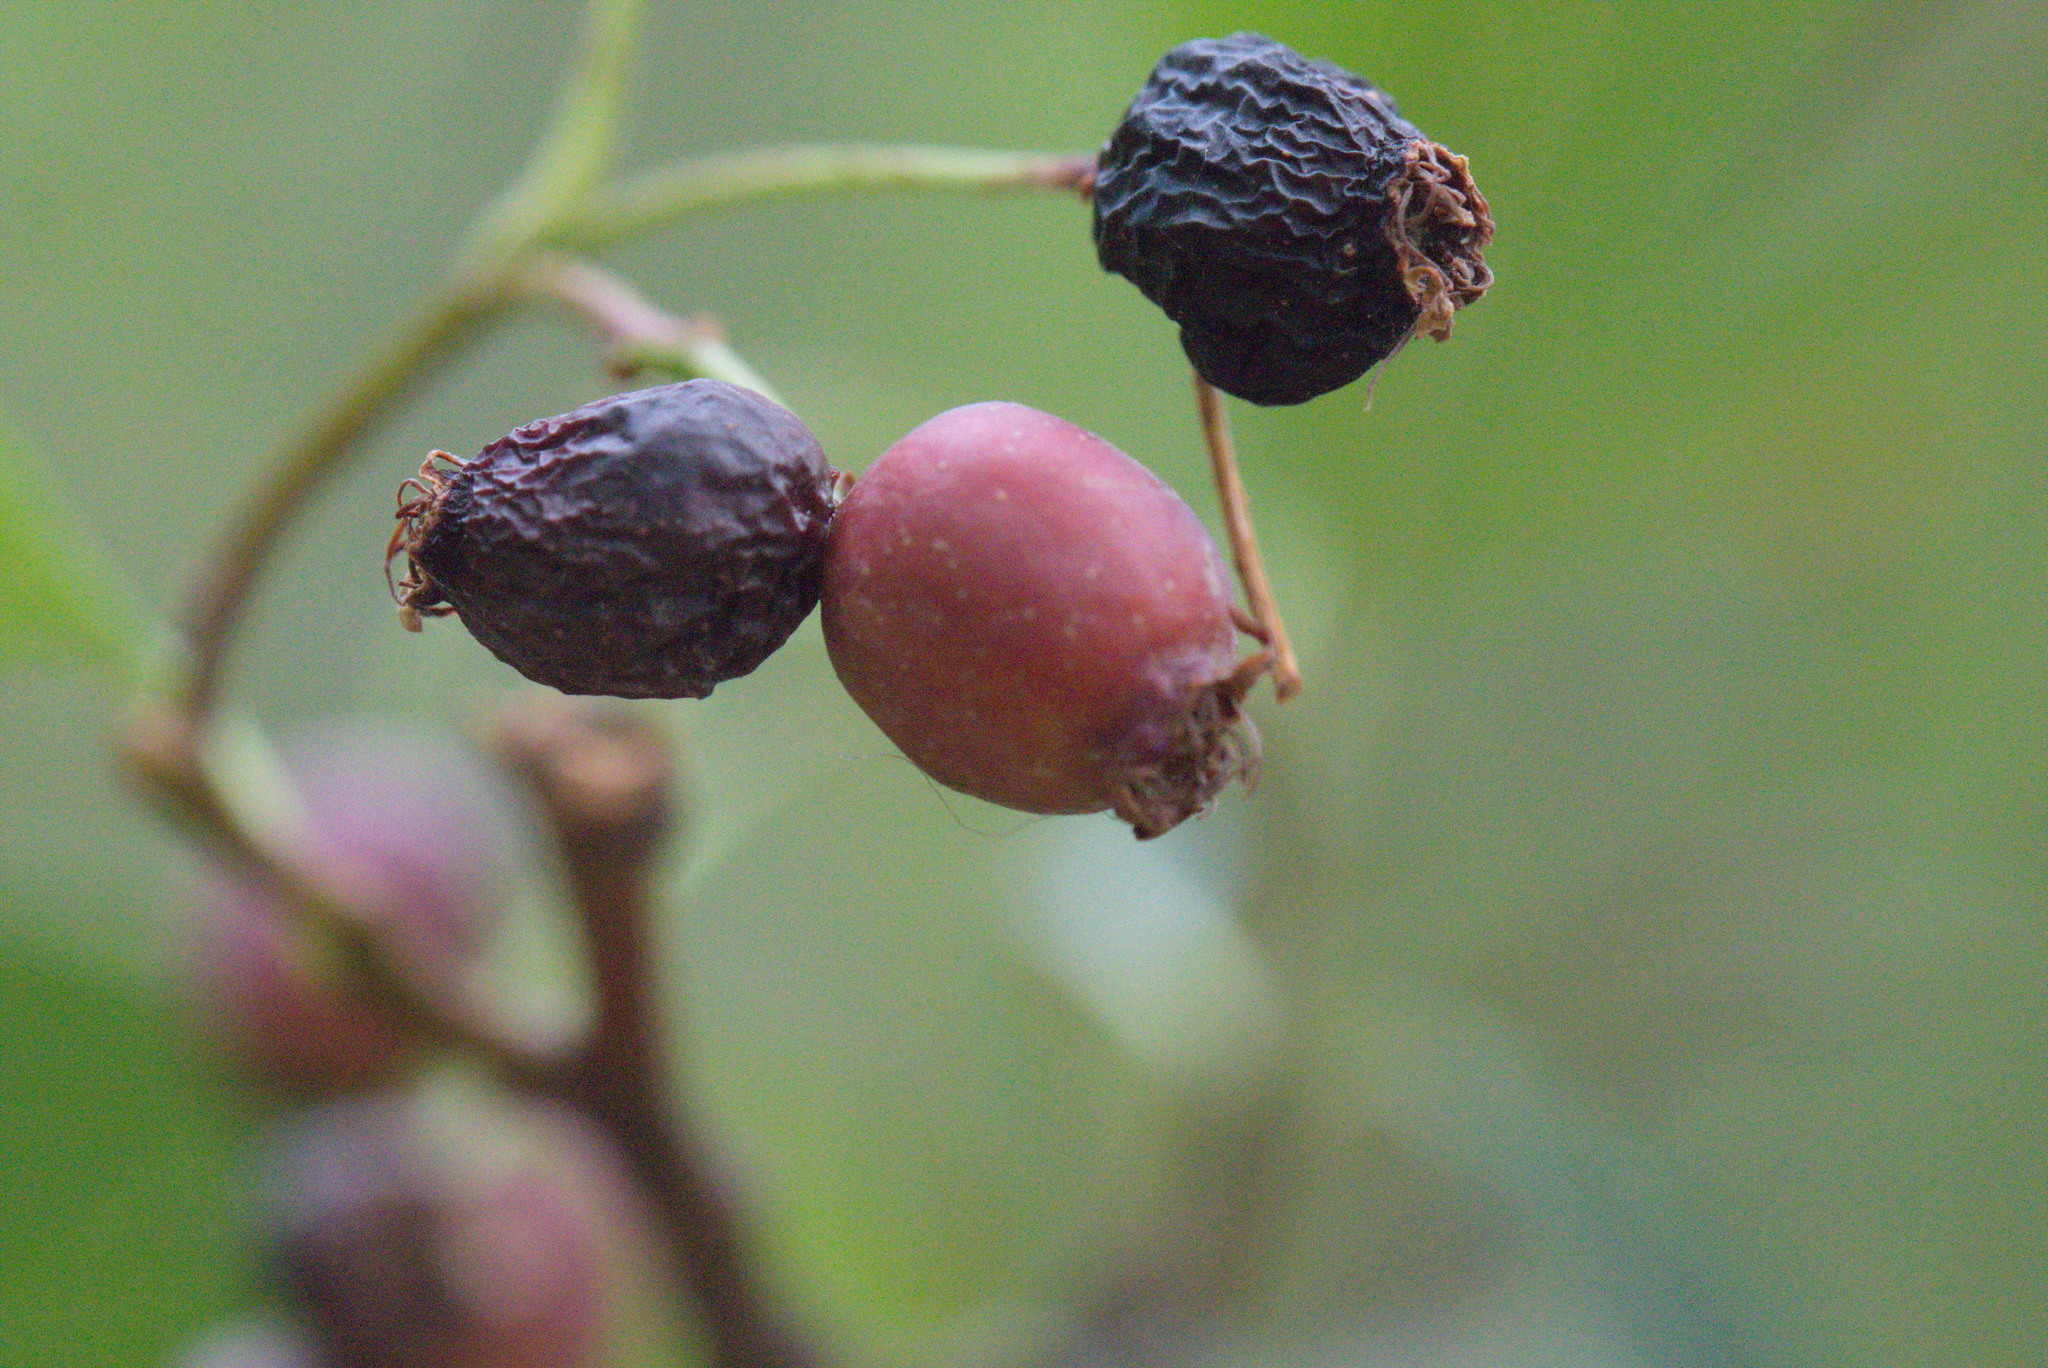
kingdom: Plantae
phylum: Tracheophyta
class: Magnoliopsida
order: Rosales
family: Rosaceae
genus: Crataegus
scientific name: Crataegus douglasii
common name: Black hawthorn
